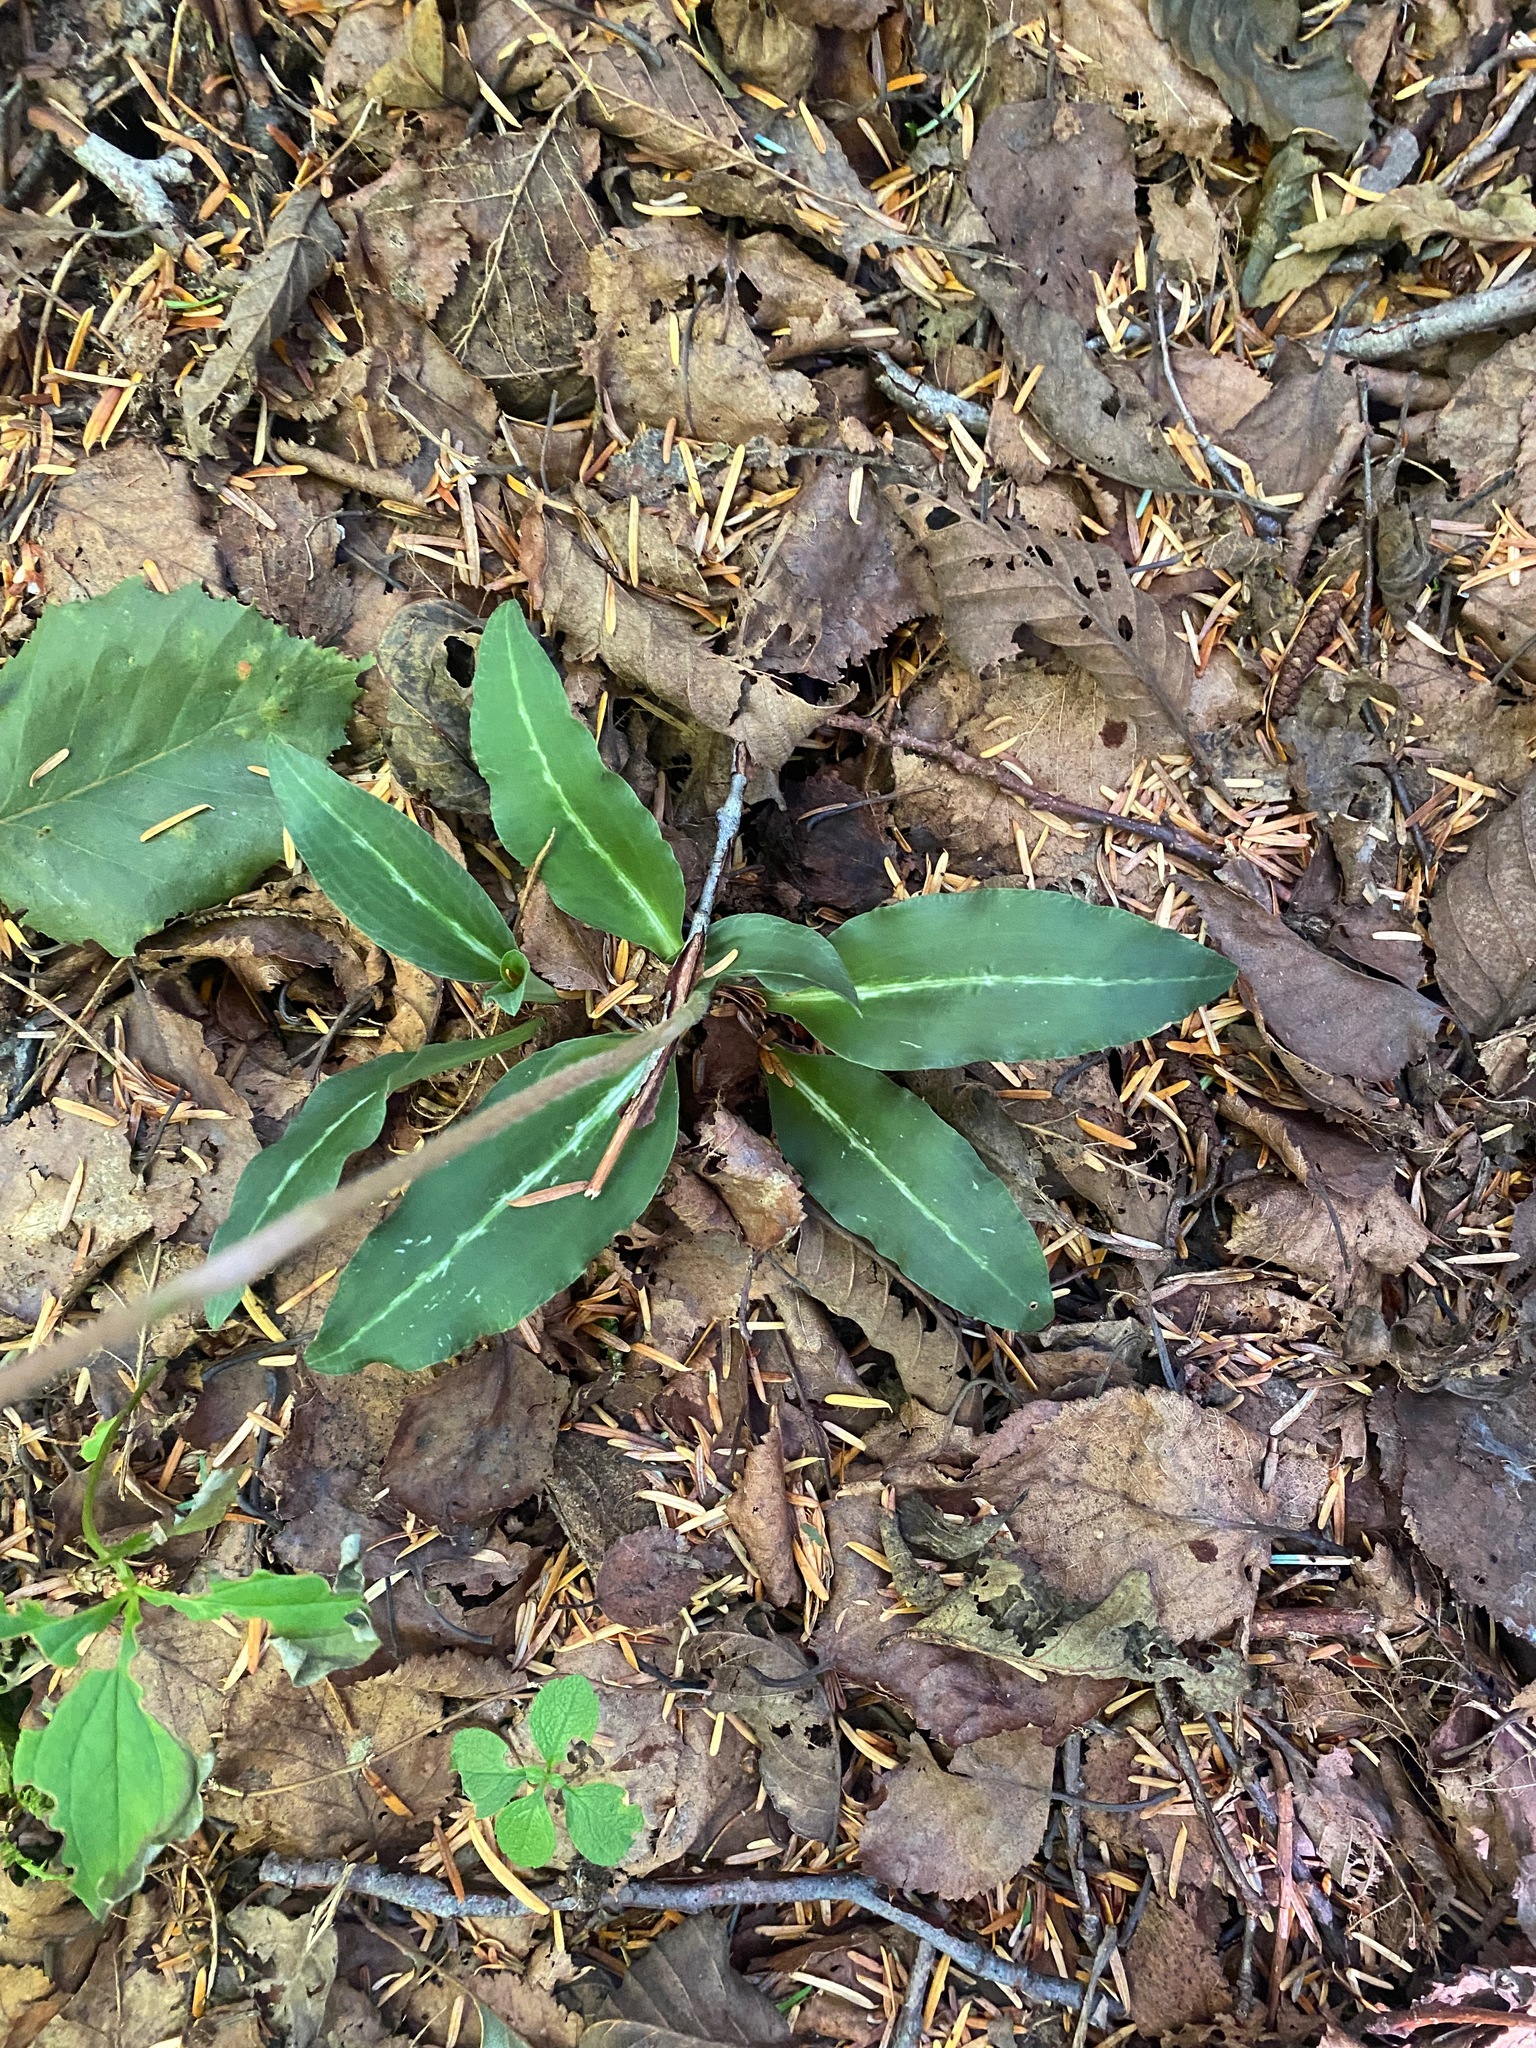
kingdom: Plantae
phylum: Tracheophyta
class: Liliopsida
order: Asparagales
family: Orchidaceae
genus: Goodyera
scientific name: Goodyera oblongifolia
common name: Giant rattlesnake-plantain
